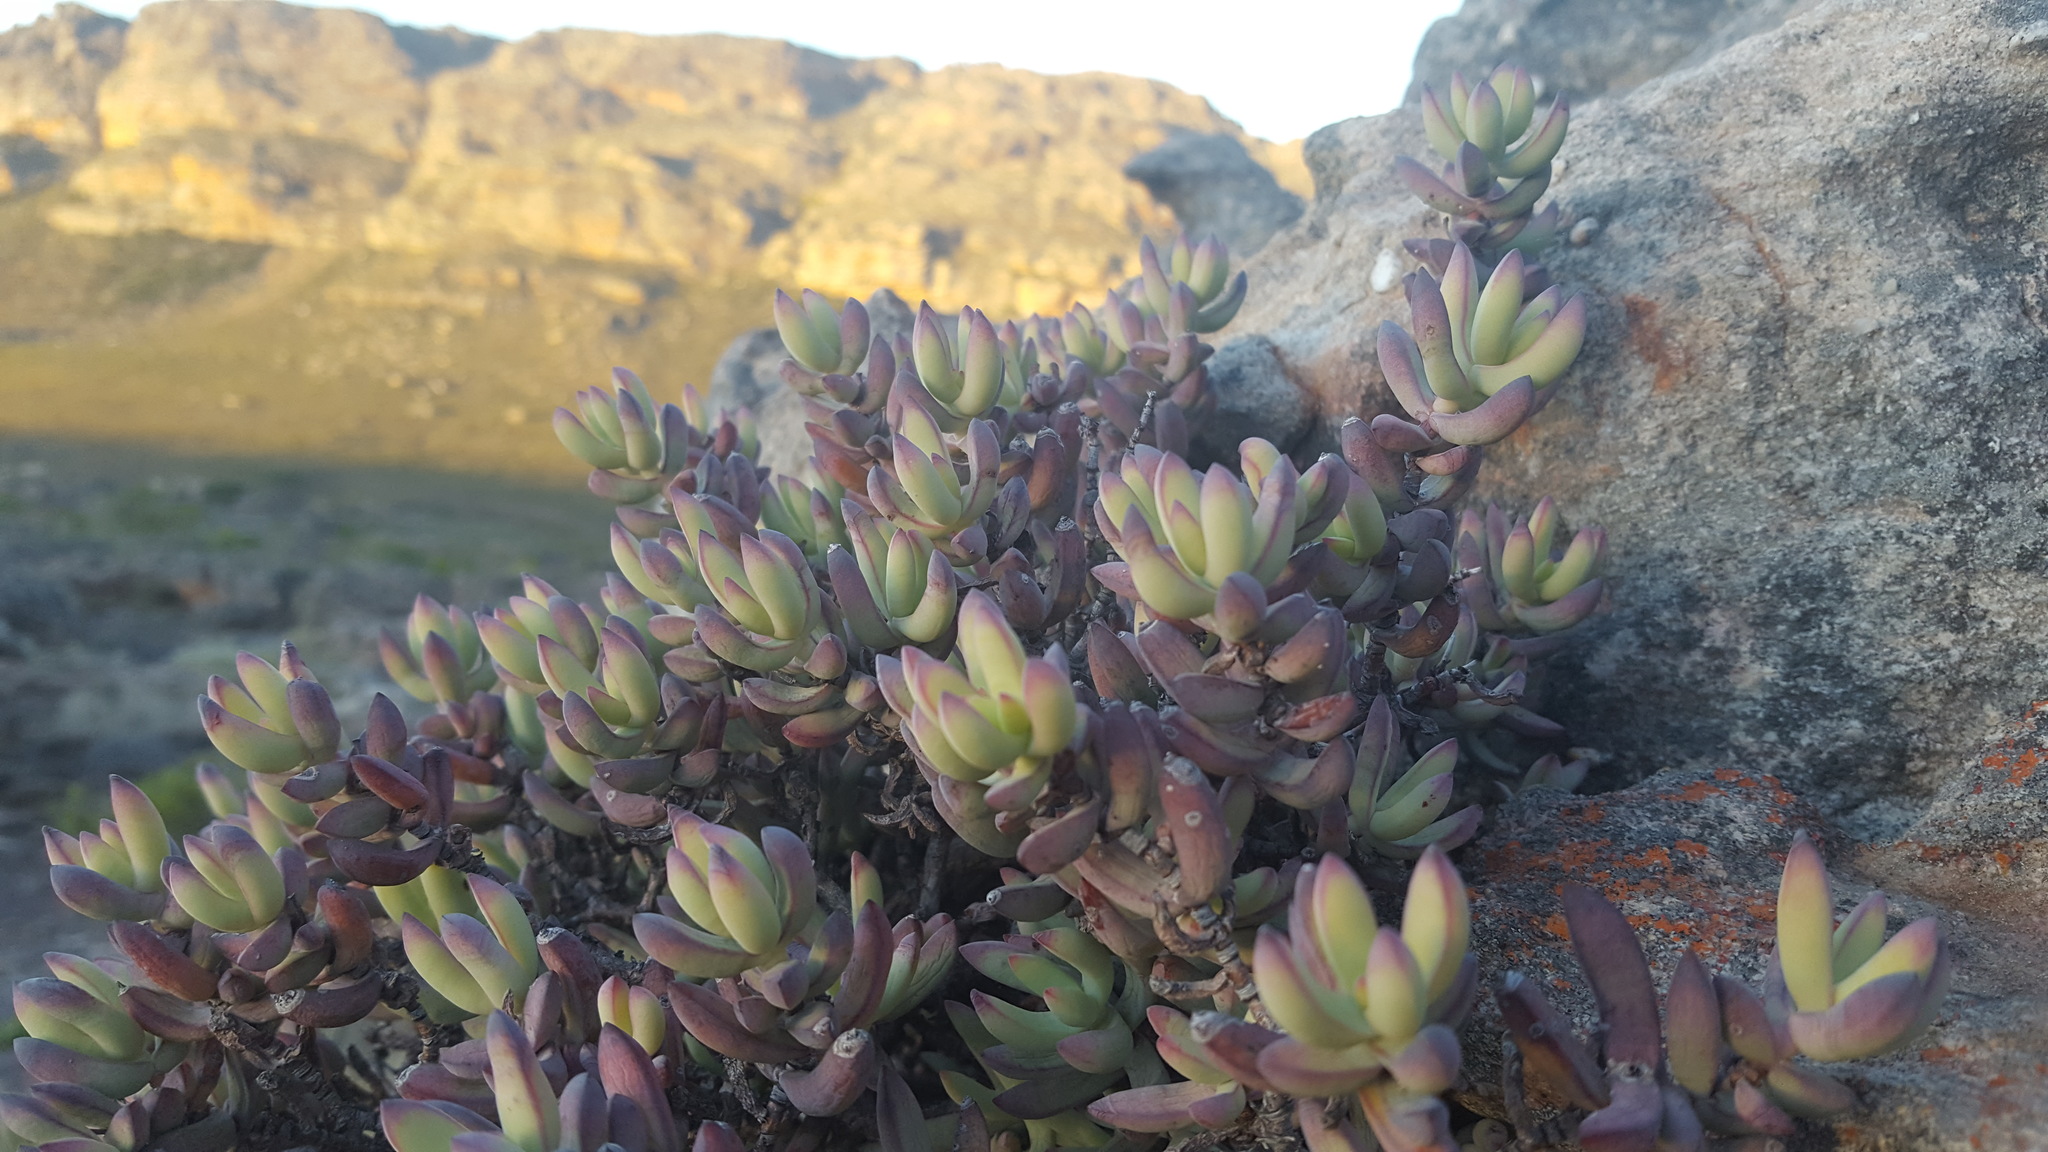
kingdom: Plantae
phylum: Tracheophyta
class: Magnoliopsida
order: Saxifragales
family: Crassulaceae
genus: Crassula
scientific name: Crassula brevifolia
